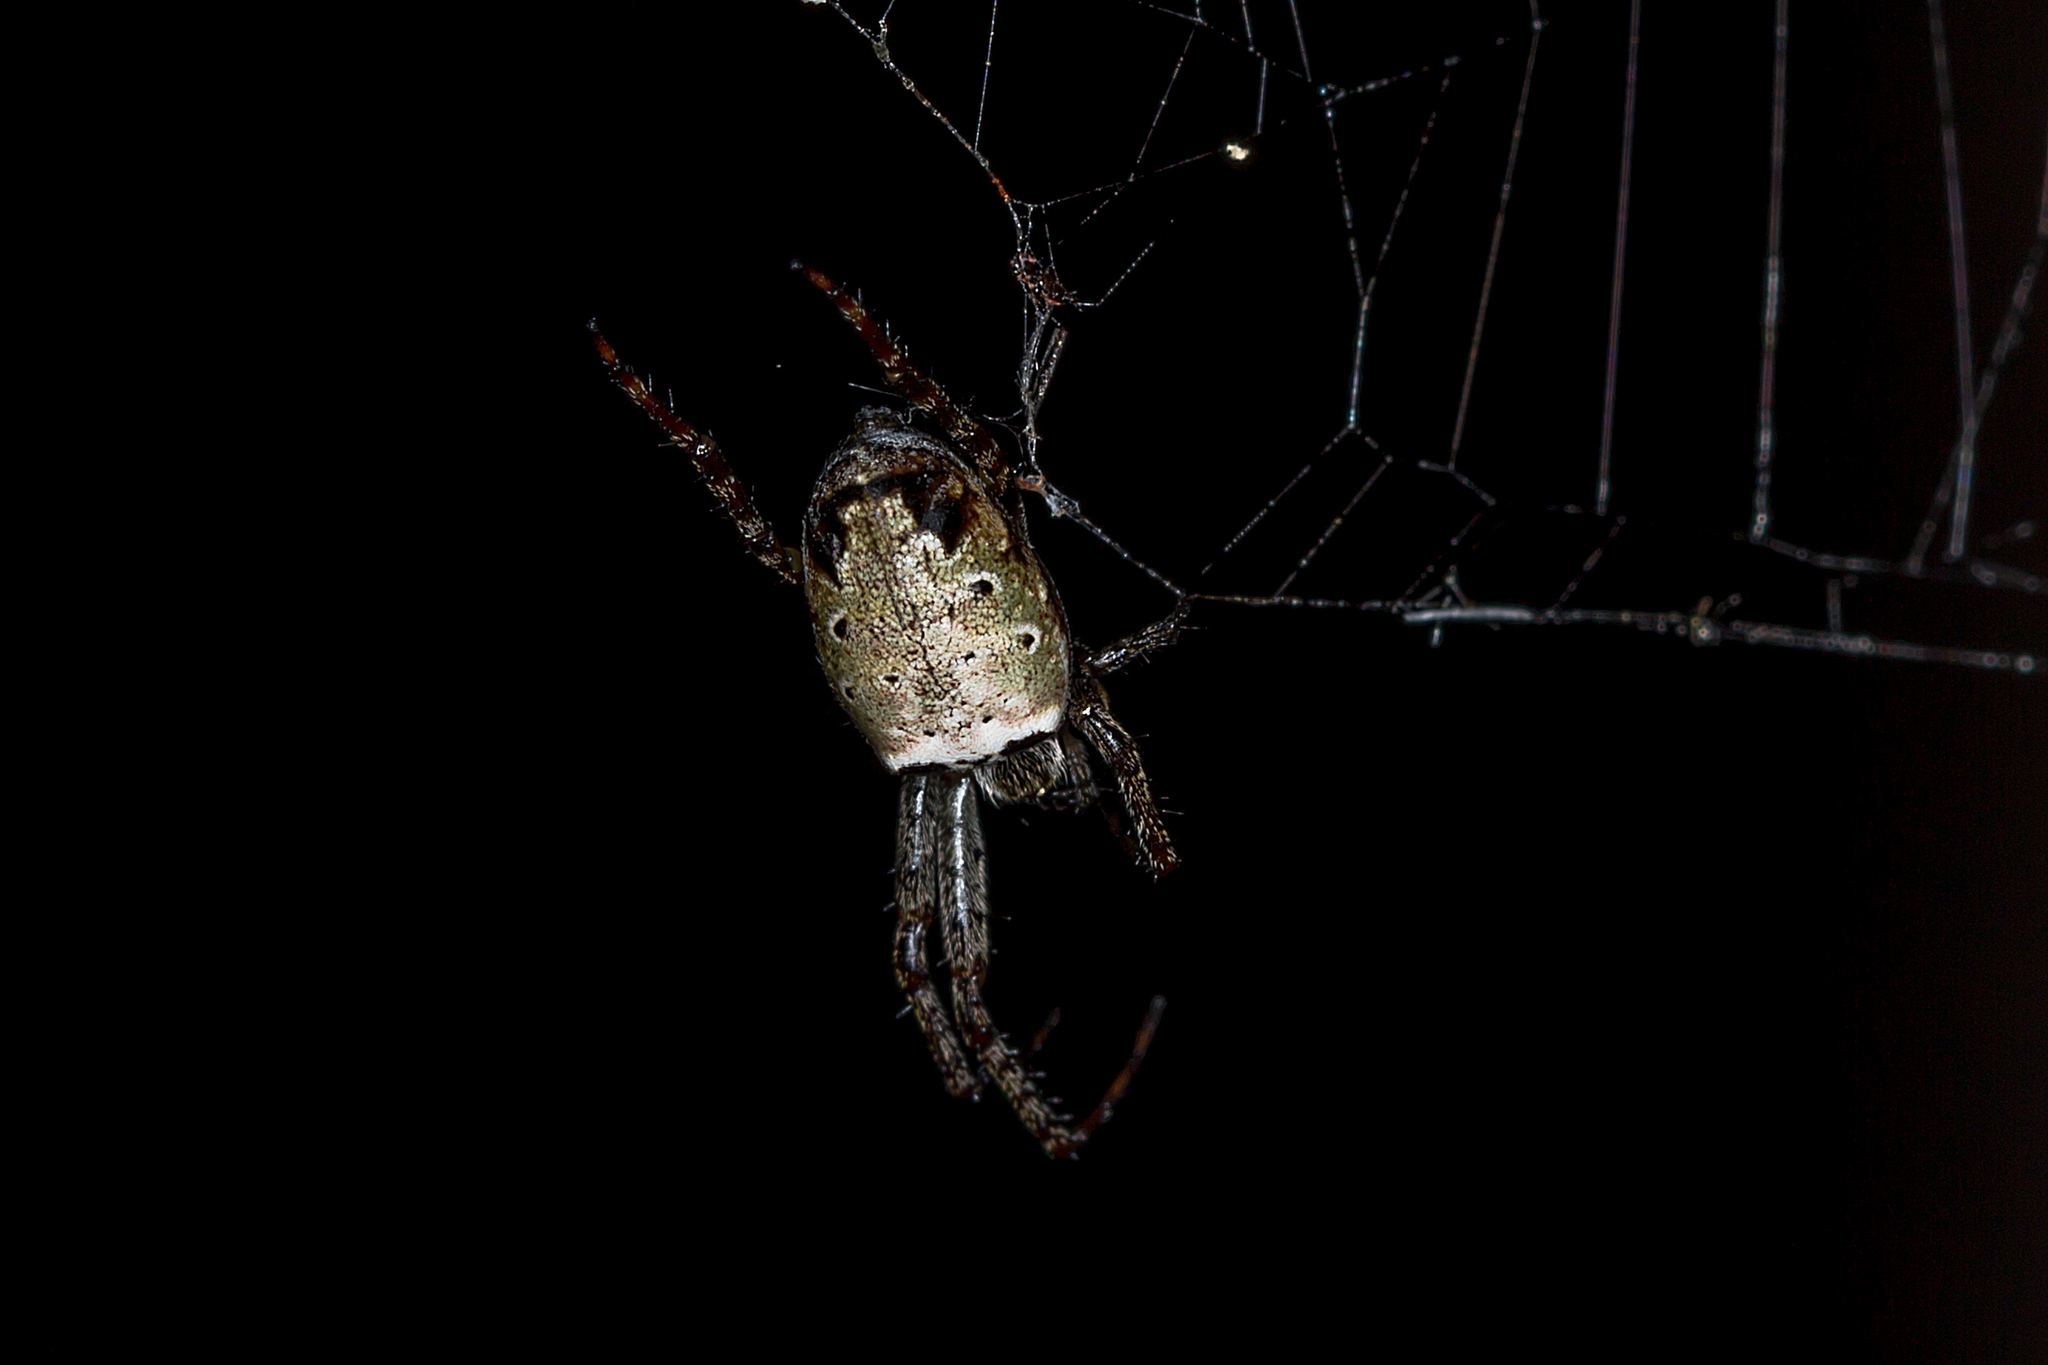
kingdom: Animalia
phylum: Arthropoda
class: Arachnida
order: Araneae
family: Araneidae
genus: Plebs
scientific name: Plebs eburnus
